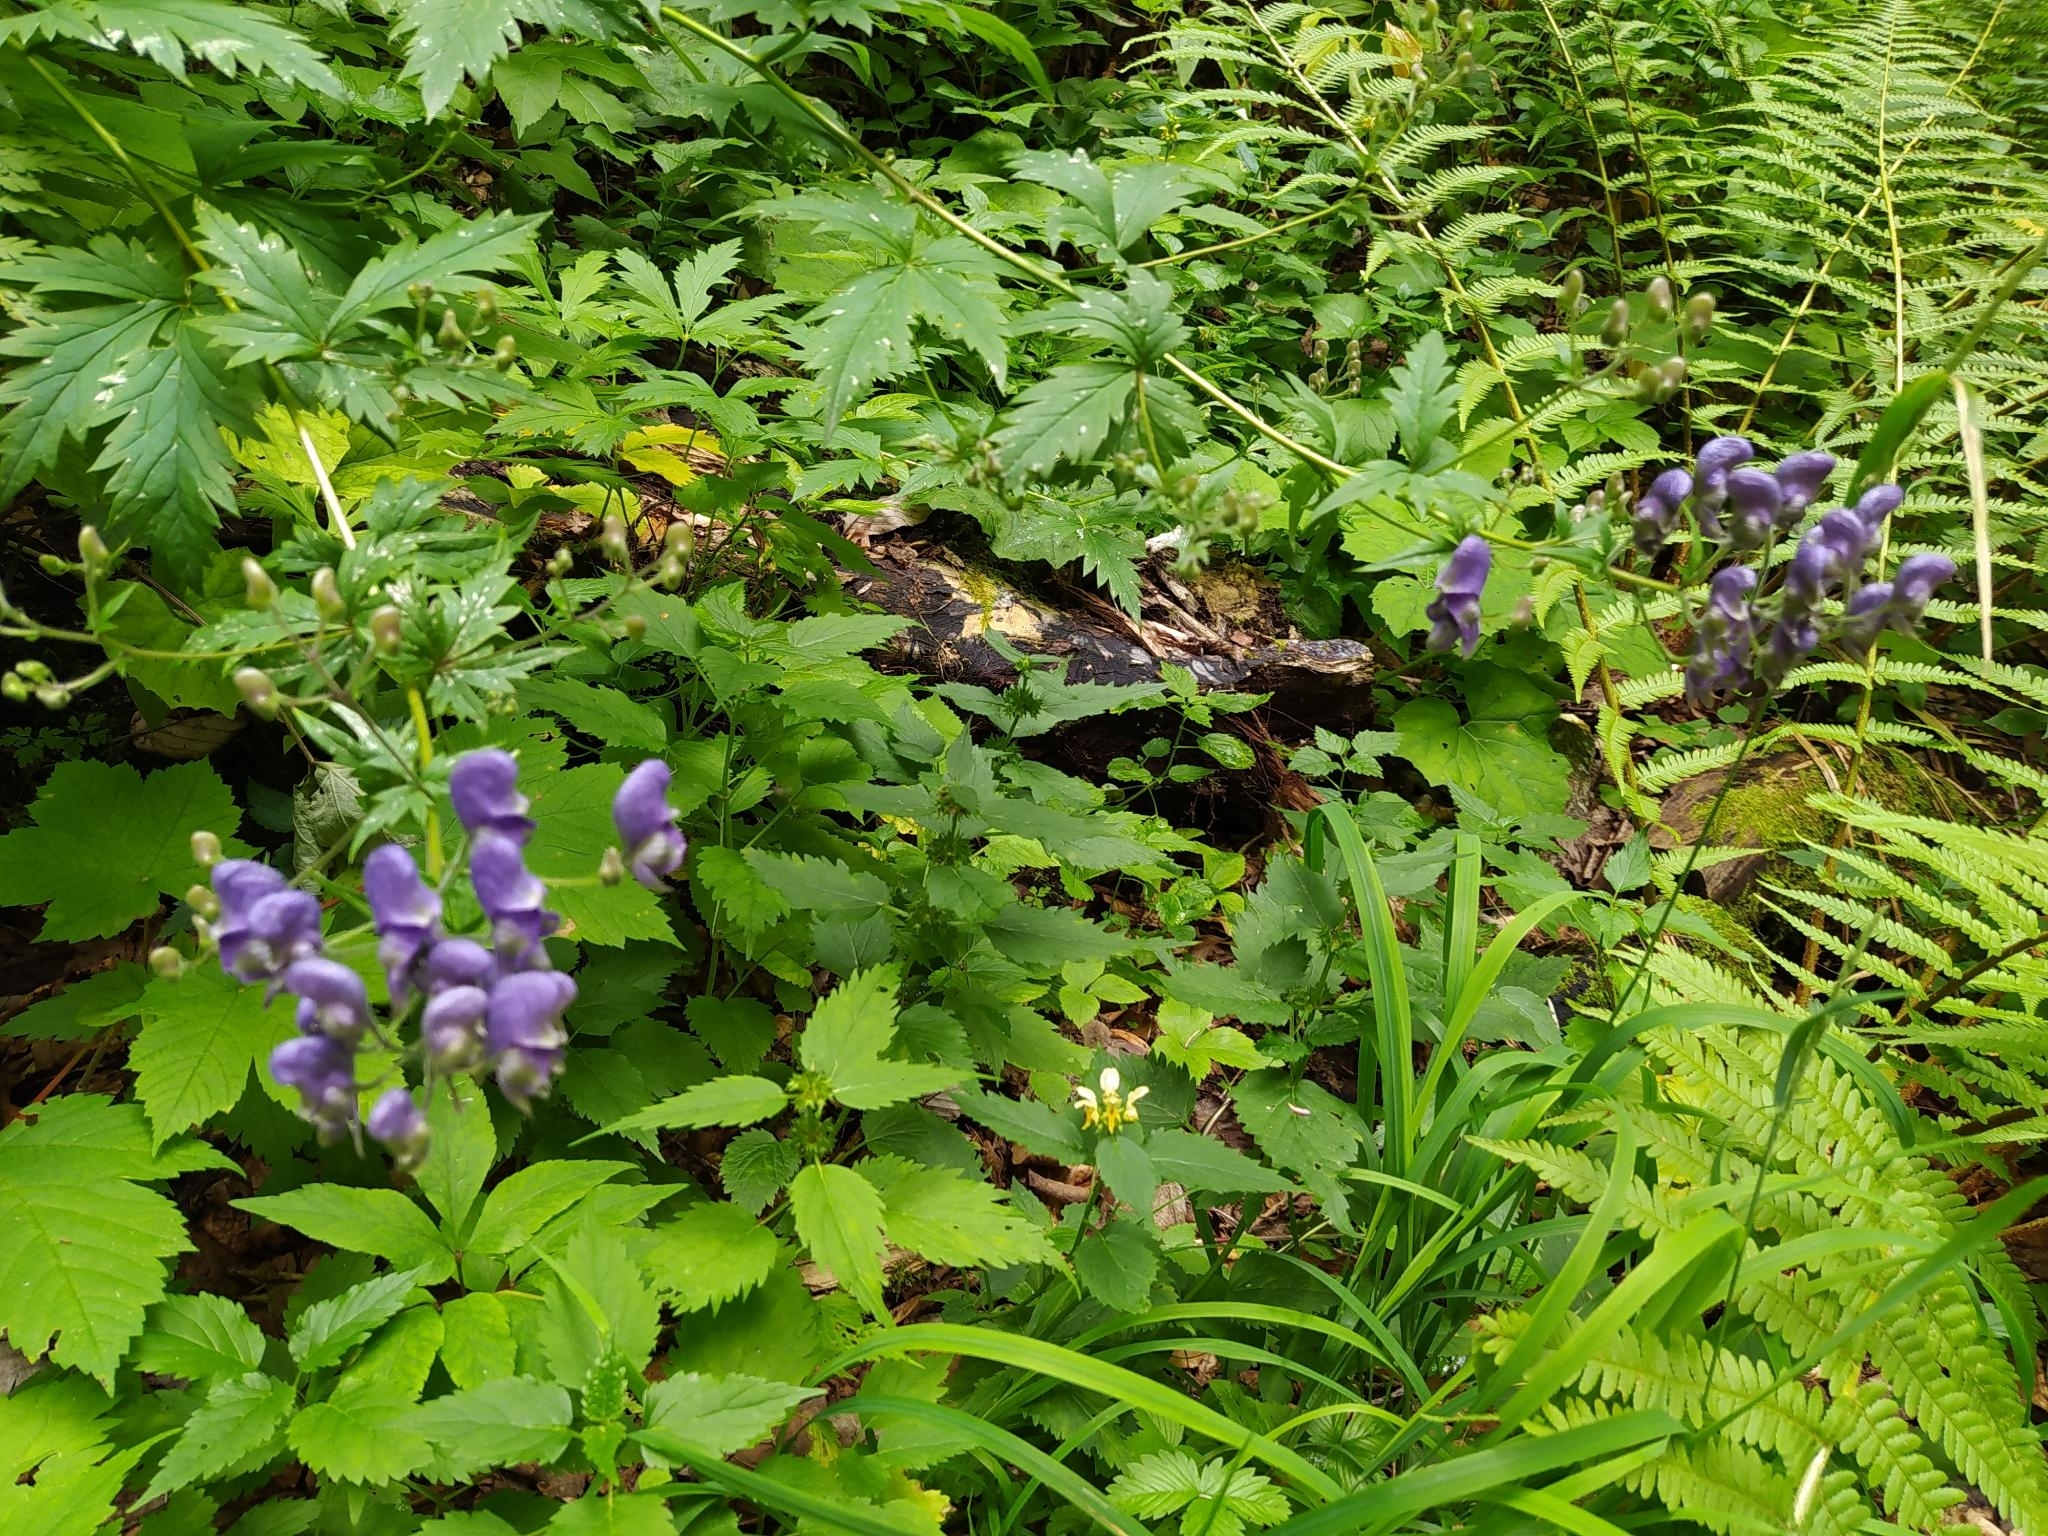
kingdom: Plantae
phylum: Tracheophyta
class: Magnoliopsida
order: Ranunculales
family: Ranunculaceae
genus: Aconitum
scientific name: Aconitum degenii
